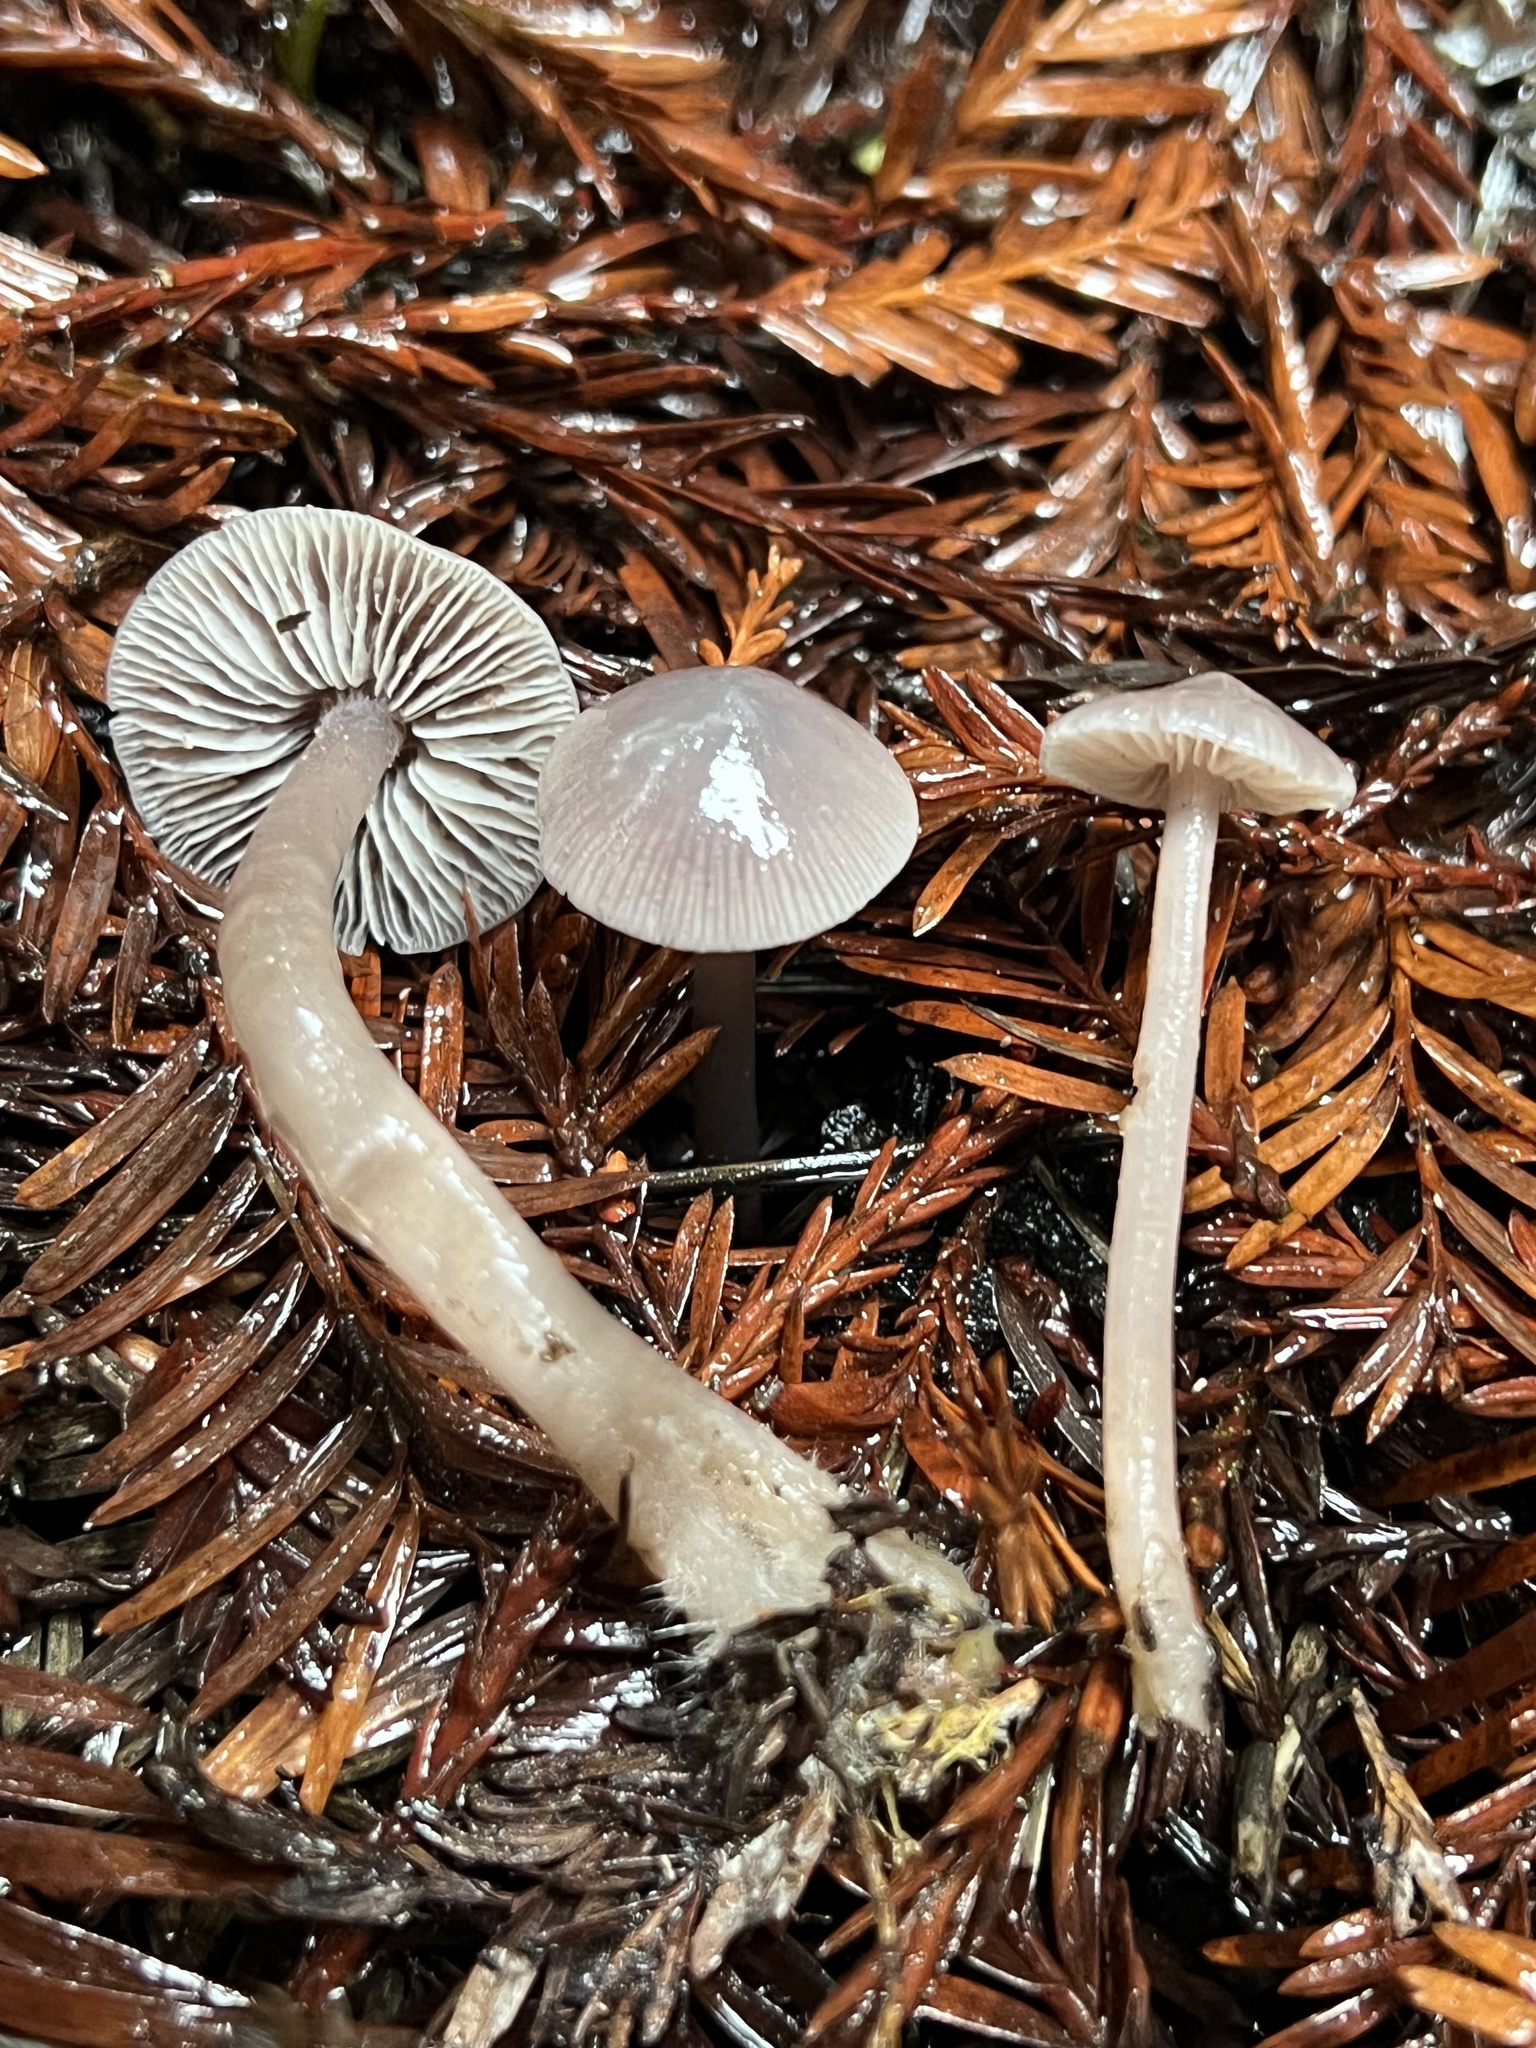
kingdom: Fungi
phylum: Basidiomycota
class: Agaricomycetes
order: Agaricales
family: Mycenaceae
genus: Mycena
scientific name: Mycena pura
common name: Lilac bonnet
